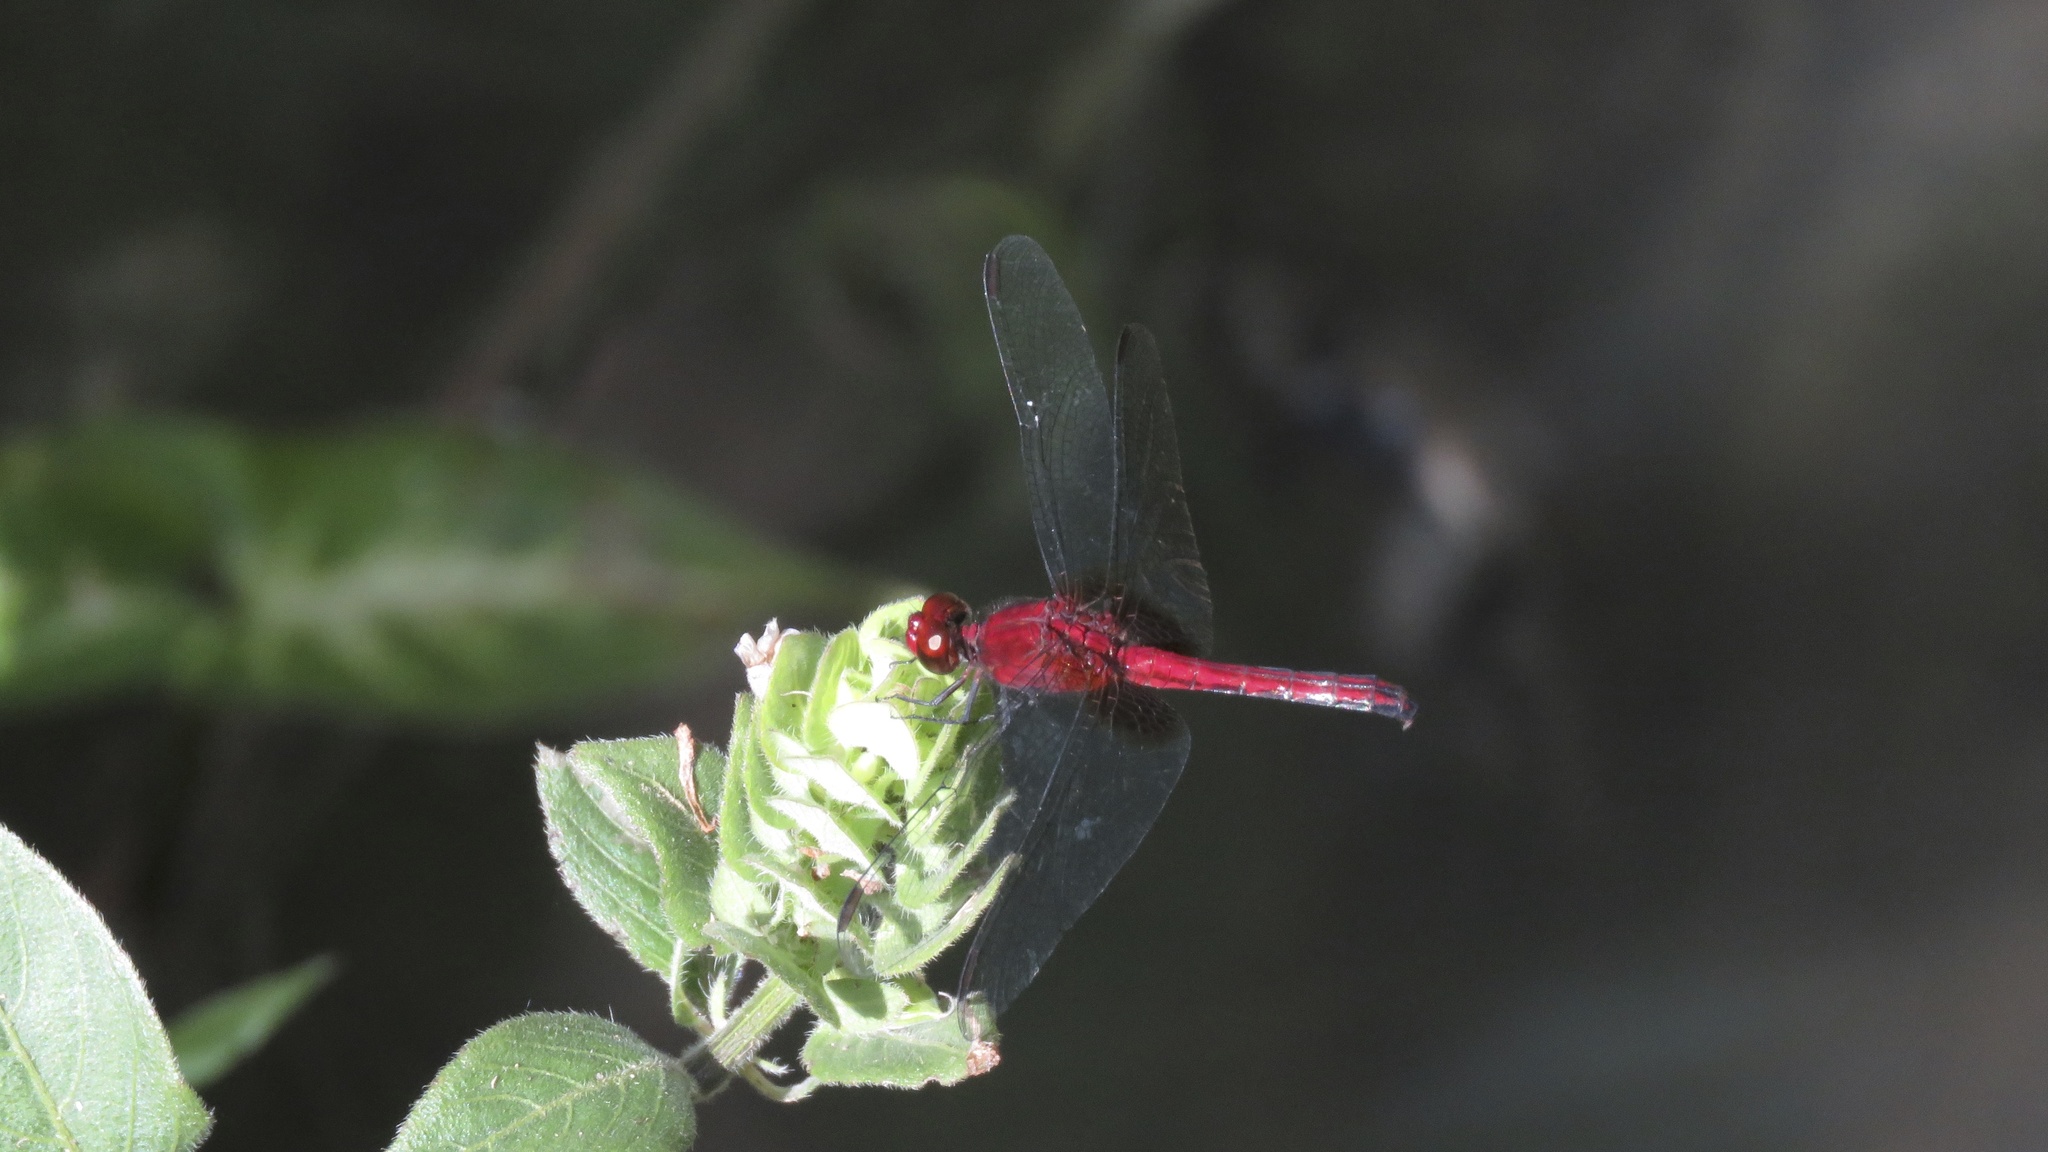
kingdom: Animalia
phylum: Arthropoda
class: Insecta
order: Odonata
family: Libellulidae
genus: Erythrodiplax
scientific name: Erythrodiplax fusca
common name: Red-faced dragonlet
